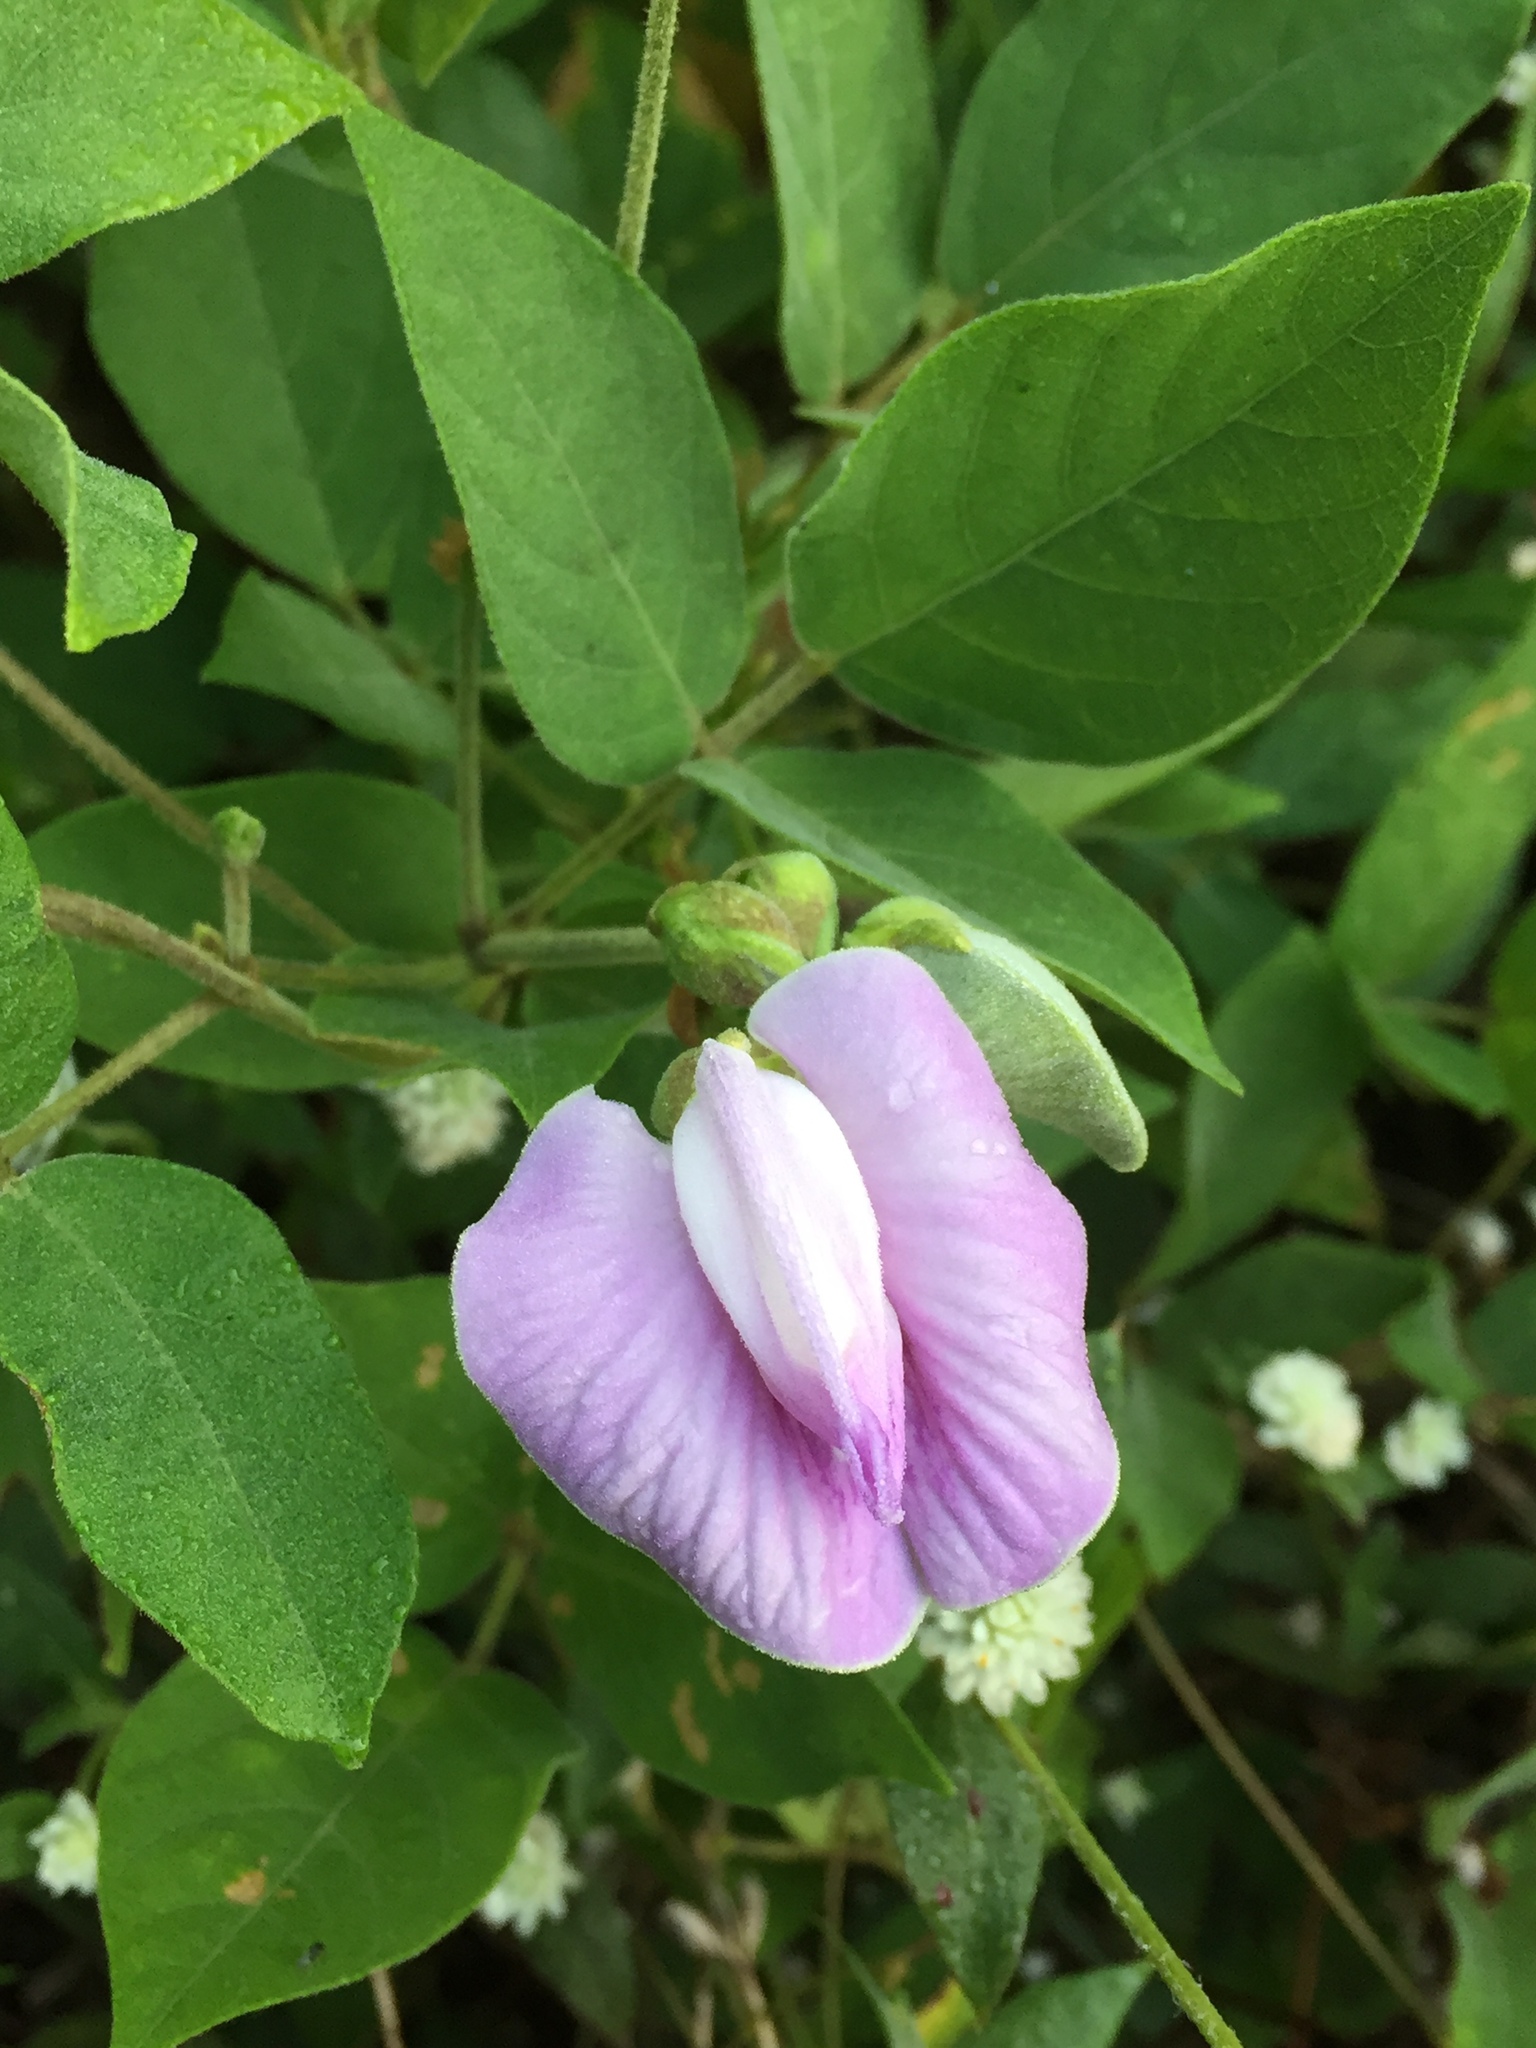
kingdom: Plantae
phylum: Tracheophyta
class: Magnoliopsida
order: Fabales
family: Fabaceae
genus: Centrosema
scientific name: Centrosema pubescens
